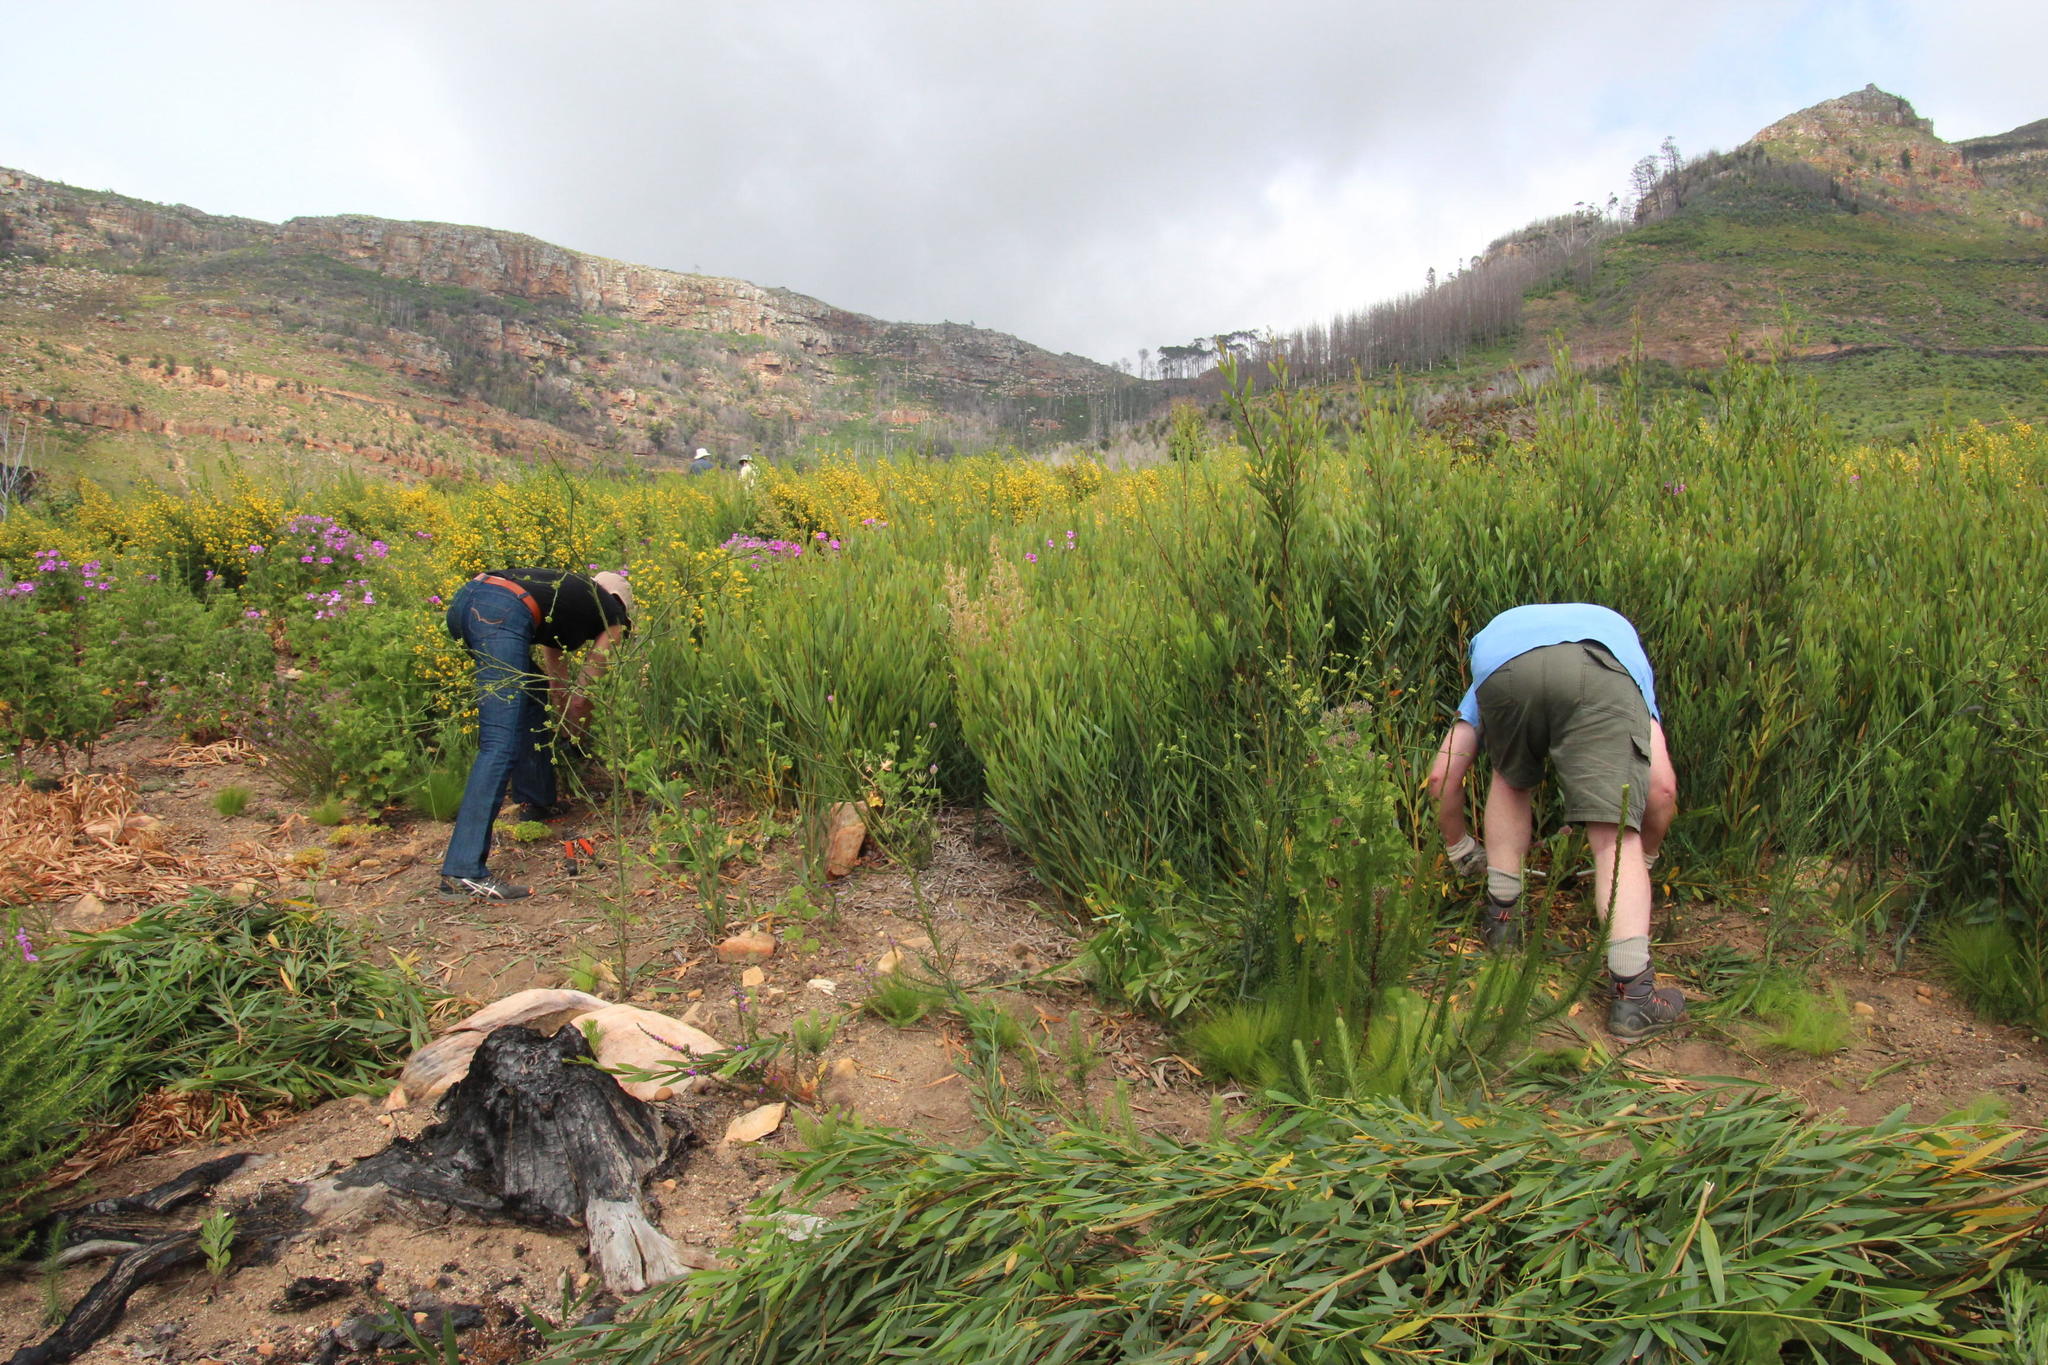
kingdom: Plantae
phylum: Tracheophyta
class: Magnoliopsida
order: Fabales
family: Fabaceae
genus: Acacia
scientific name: Acacia longifolia
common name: Sydney golden wattle
